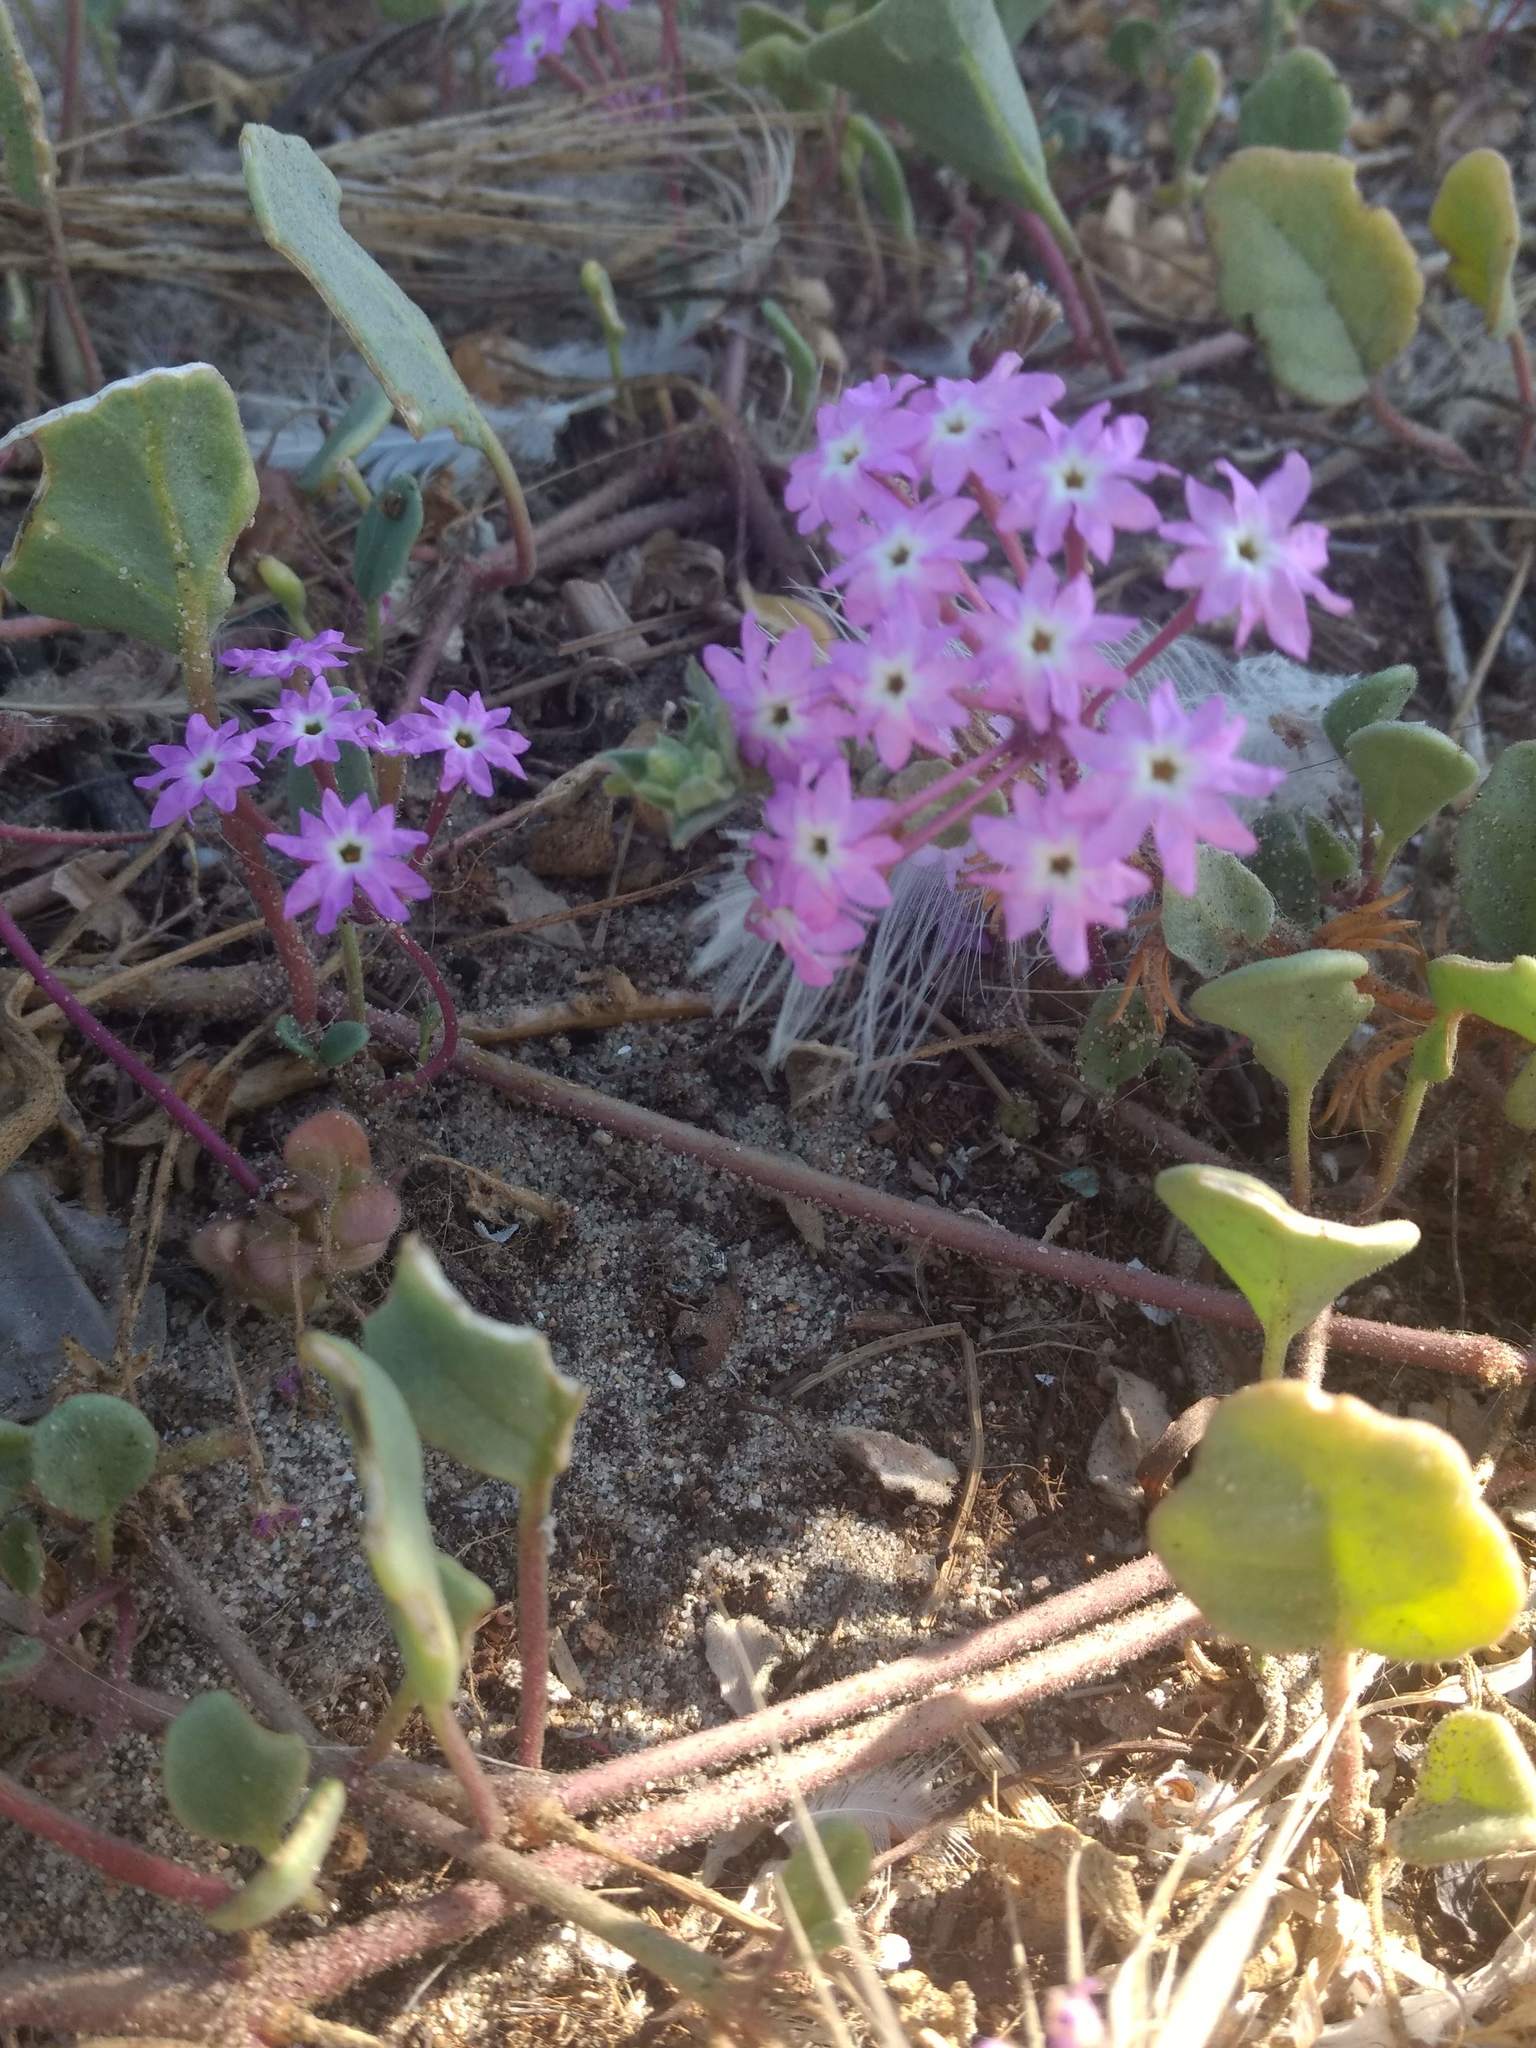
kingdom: Plantae
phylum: Tracheophyta
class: Magnoliopsida
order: Caryophyllales
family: Nyctaginaceae
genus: Abronia
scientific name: Abronia umbellata
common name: Sand-verbena
